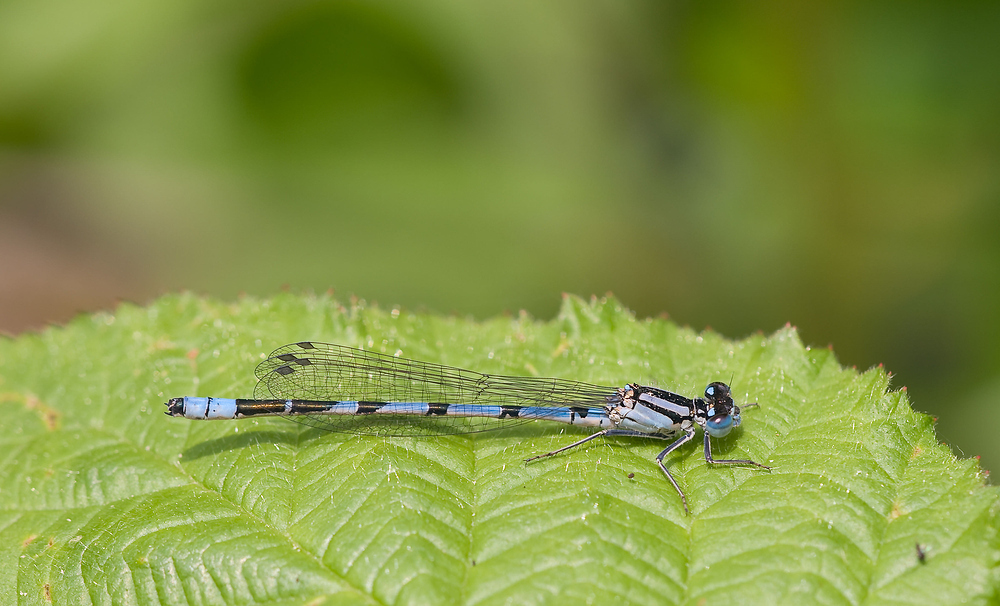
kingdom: Animalia
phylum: Arthropoda
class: Insecta
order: Odonata
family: Coenagrionidae
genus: Enallagma
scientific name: Enallagma cyathigerum
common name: Common blue damselfly
